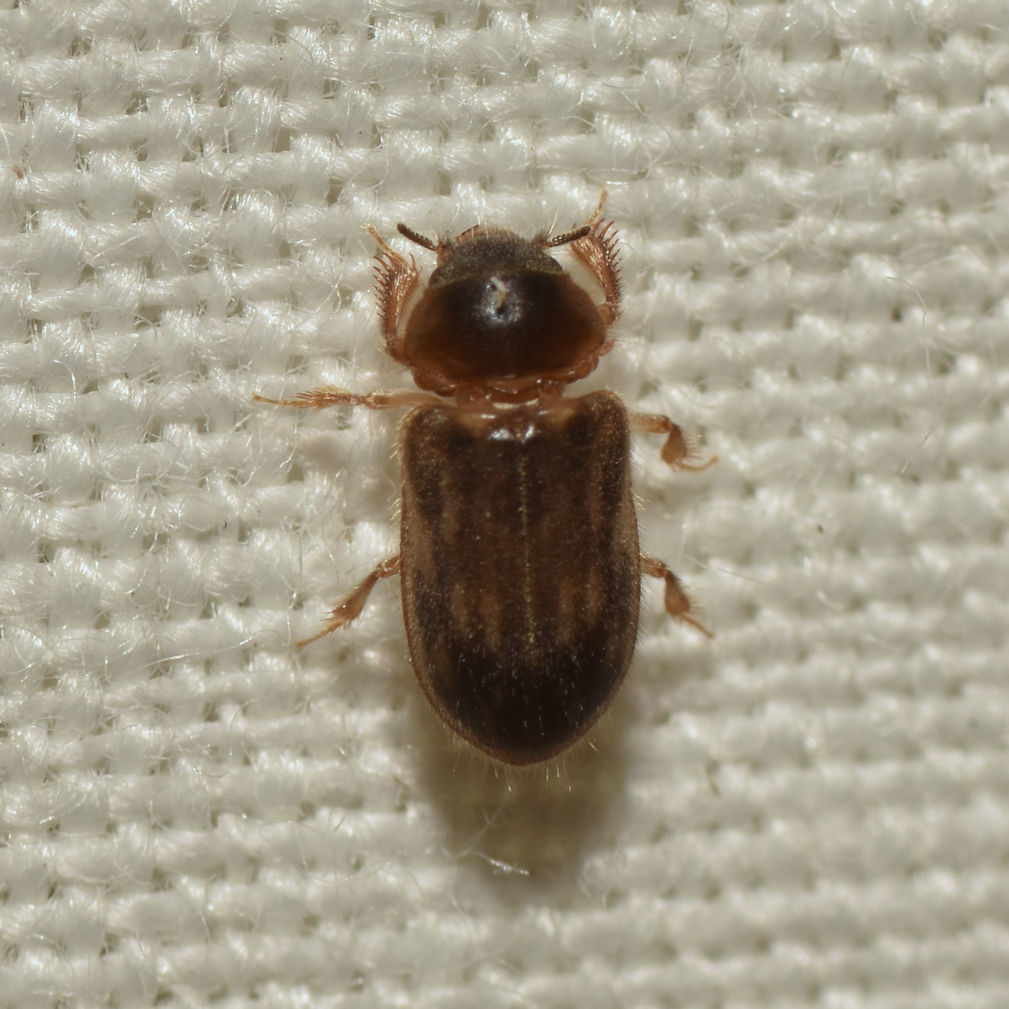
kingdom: Animalia
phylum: Arthropoda
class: Insecta
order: Coleoptera
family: Heteroceridae
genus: Heterocerus
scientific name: Heterocerus fenestratus
